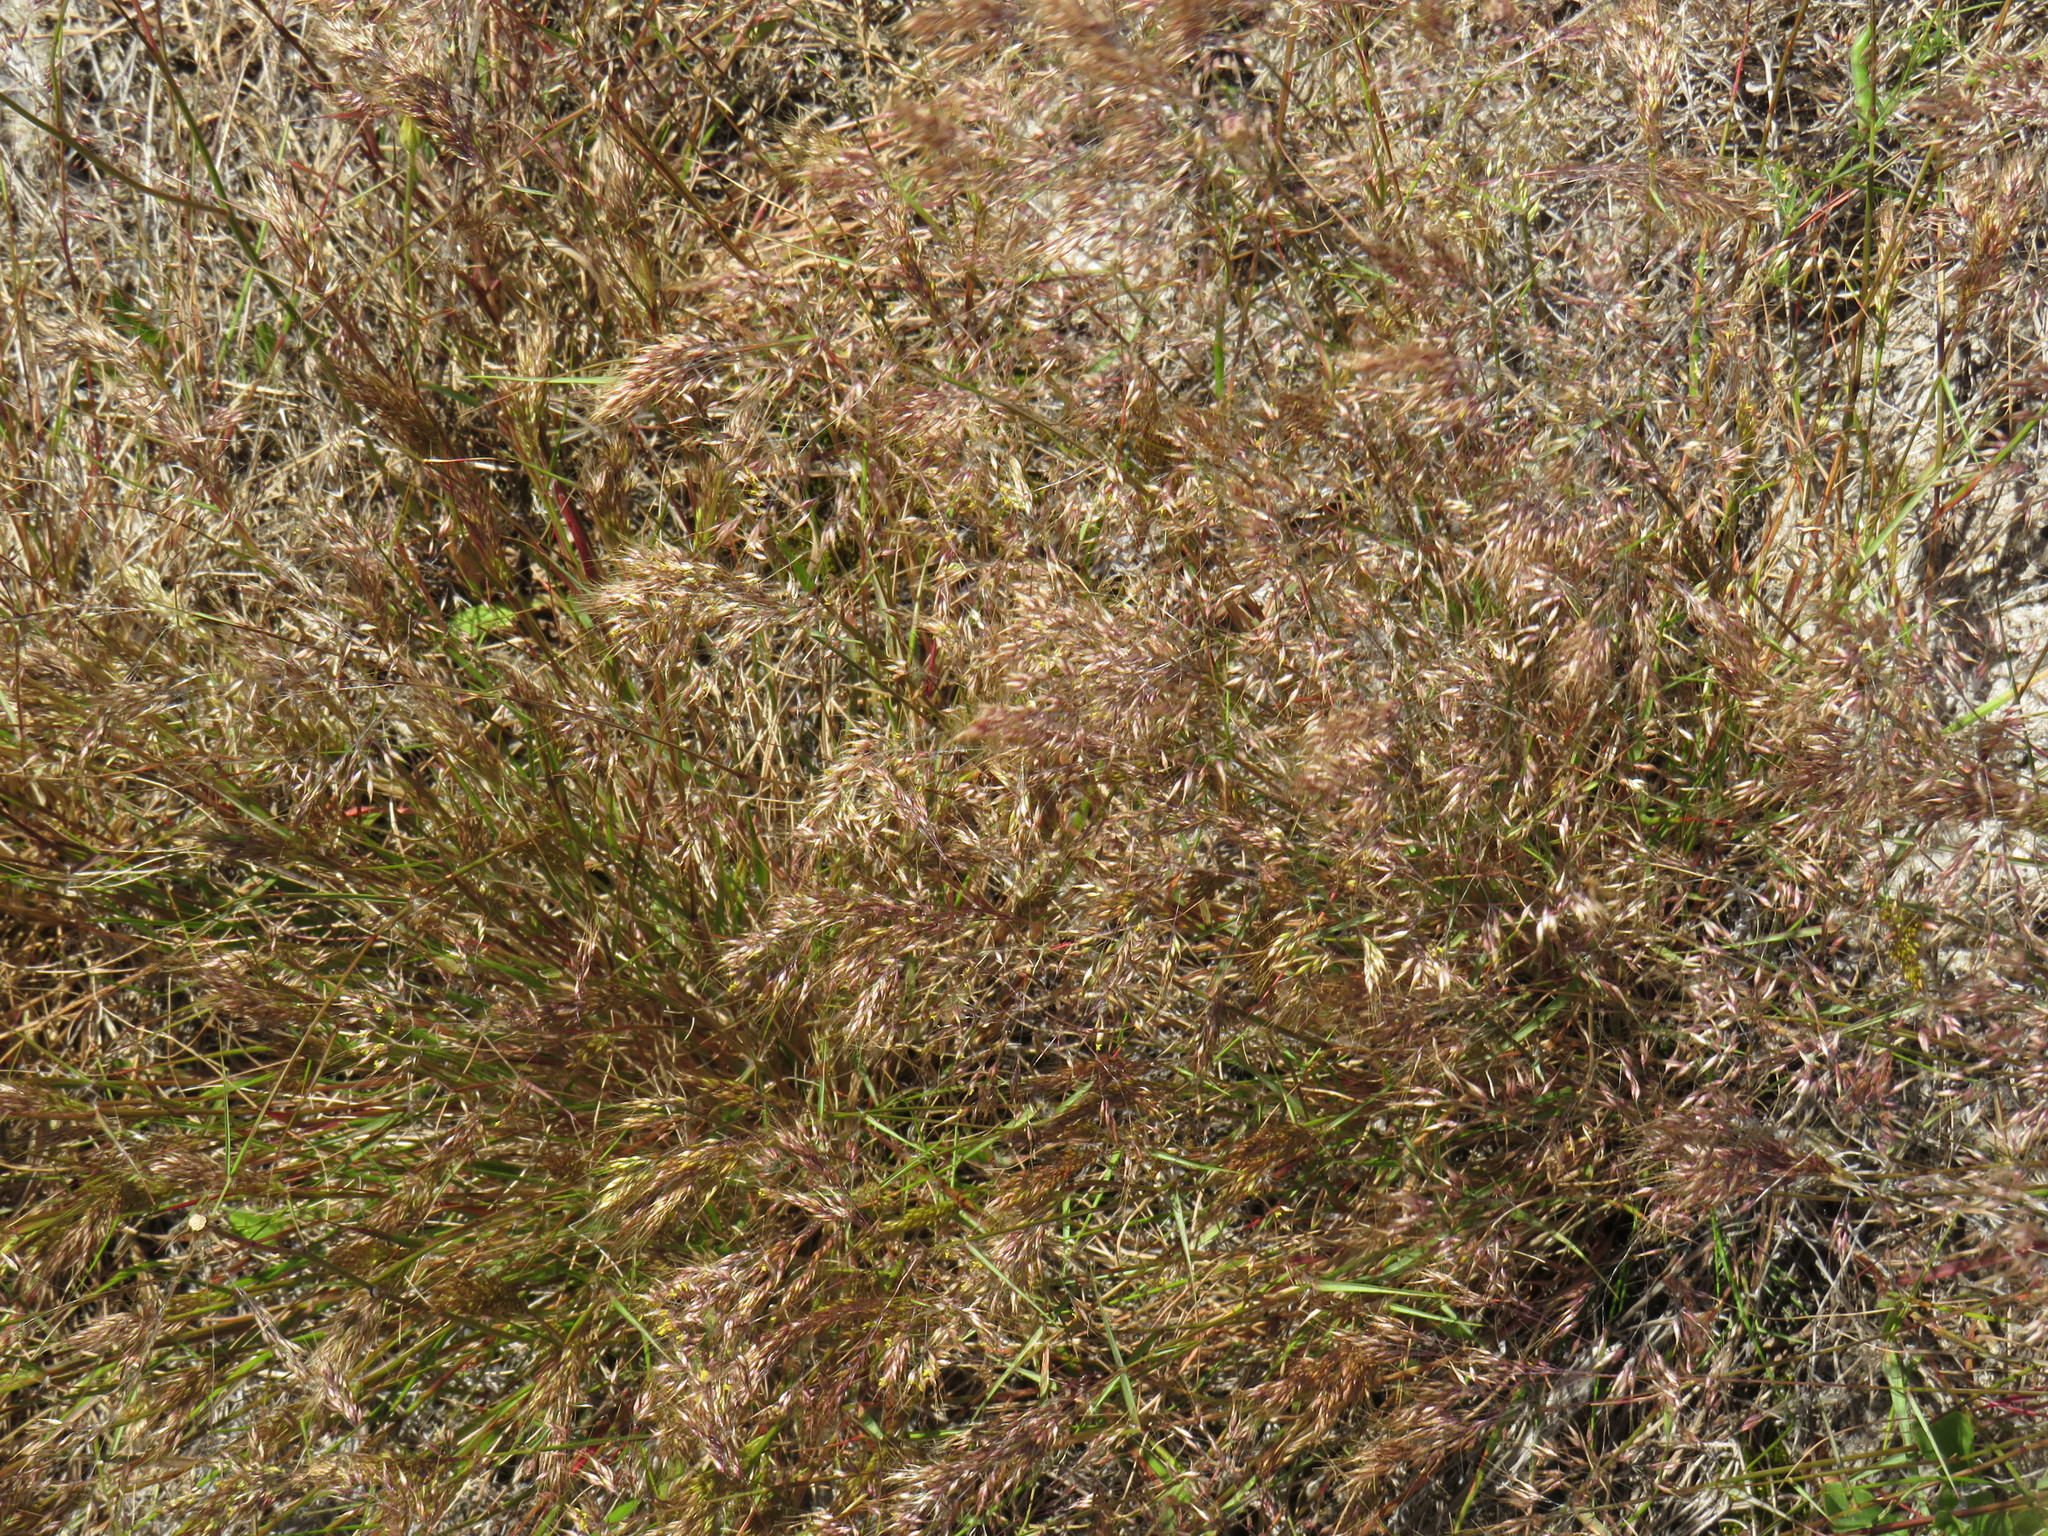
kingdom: Plantae
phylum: Tracheophyta
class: Liliopsida
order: Poales
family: Poaceae
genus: Pentameris
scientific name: Pentameris airoides
